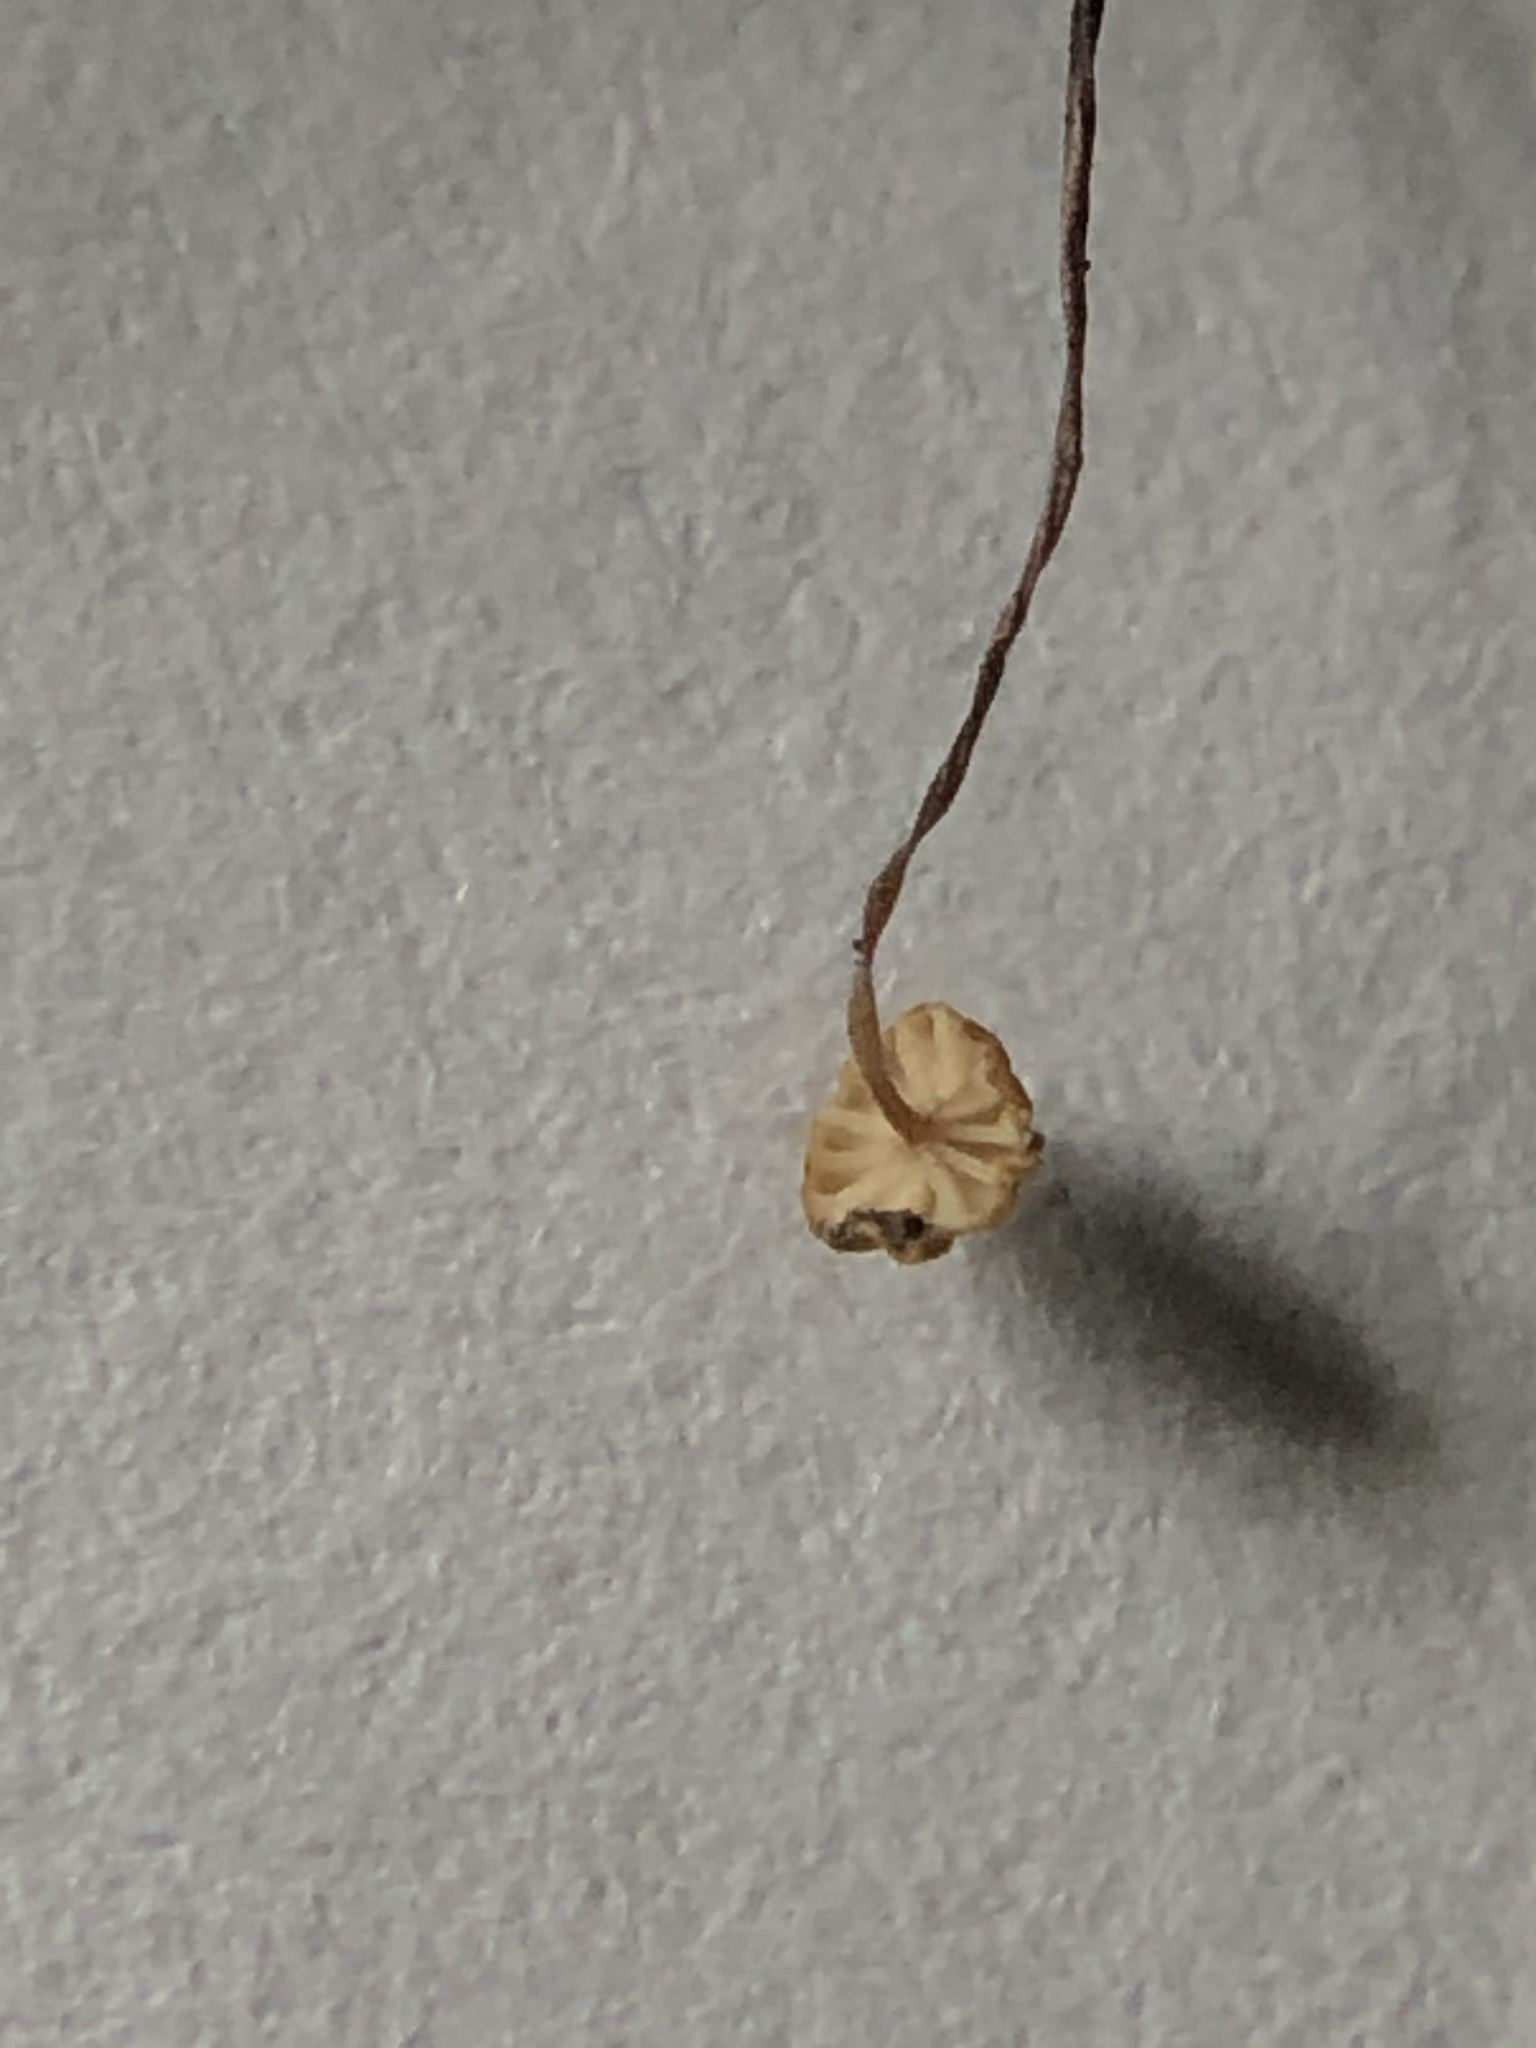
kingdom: Fungi
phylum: Basidiomycota
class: Agaricomycetes
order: Agaricales
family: Physalacriaceae
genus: Cryptomarasmius
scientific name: Cryptomarasmius corbariensis
